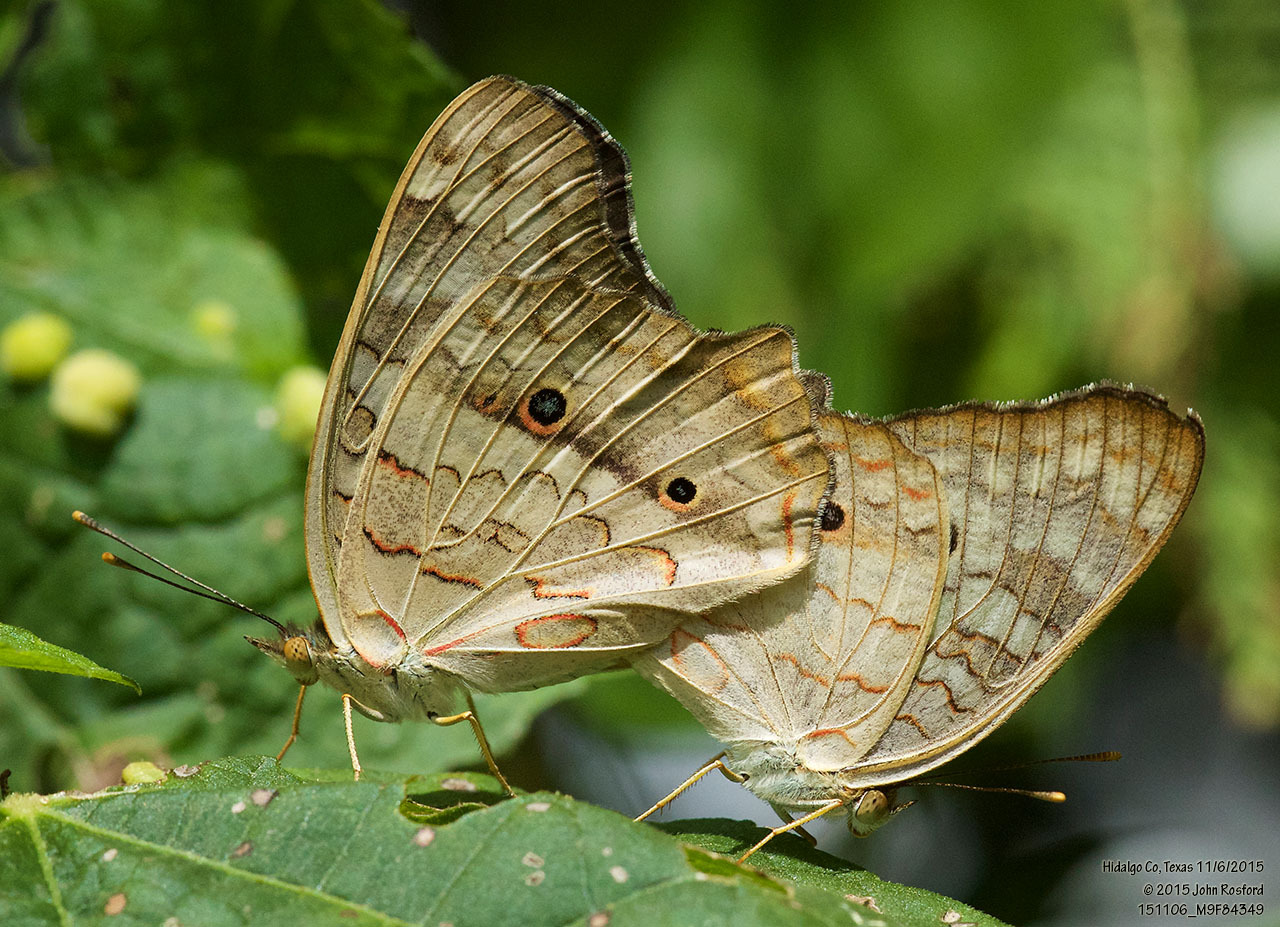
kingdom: Animalia
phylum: Arthropoda
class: Insecta
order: Lepidoptera
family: Nymphalidae
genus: Anartia
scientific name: Anartia jatrophae
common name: White peacock
